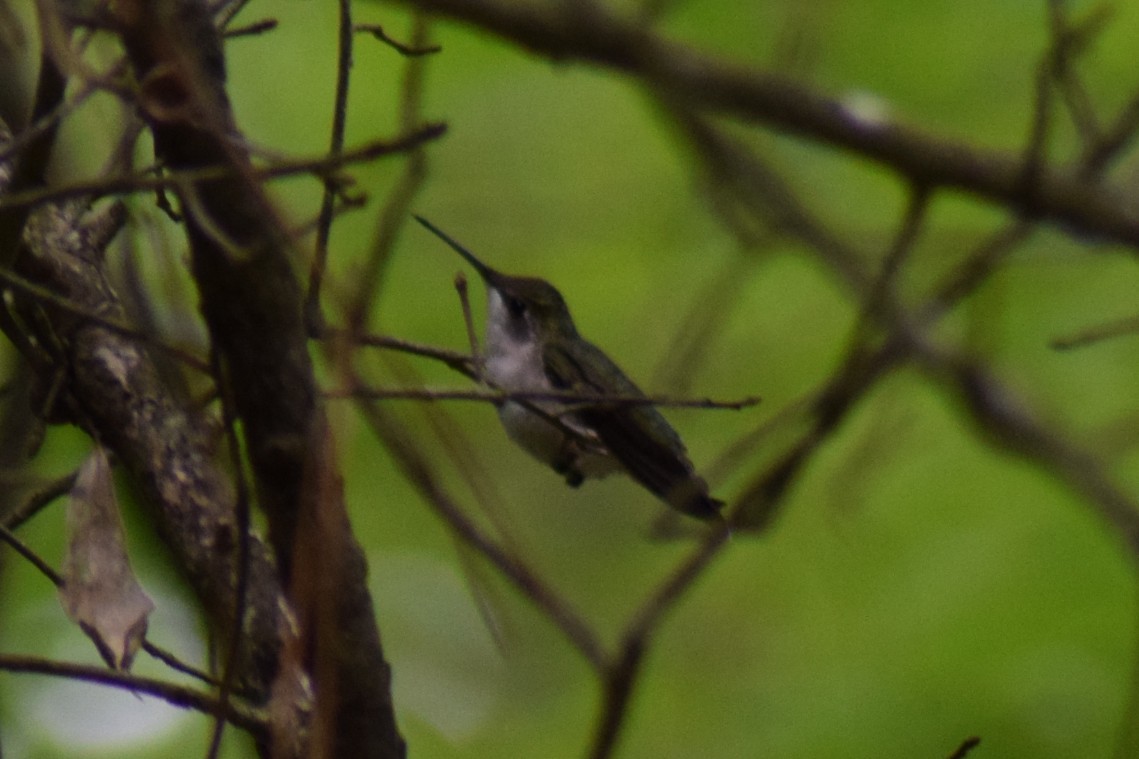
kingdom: Animalia
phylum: Chordata
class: Aves
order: Apodiformes
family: Trochilidae
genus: Archilochus
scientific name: Archilochus colubris
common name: Ruby-throated hummingbird
